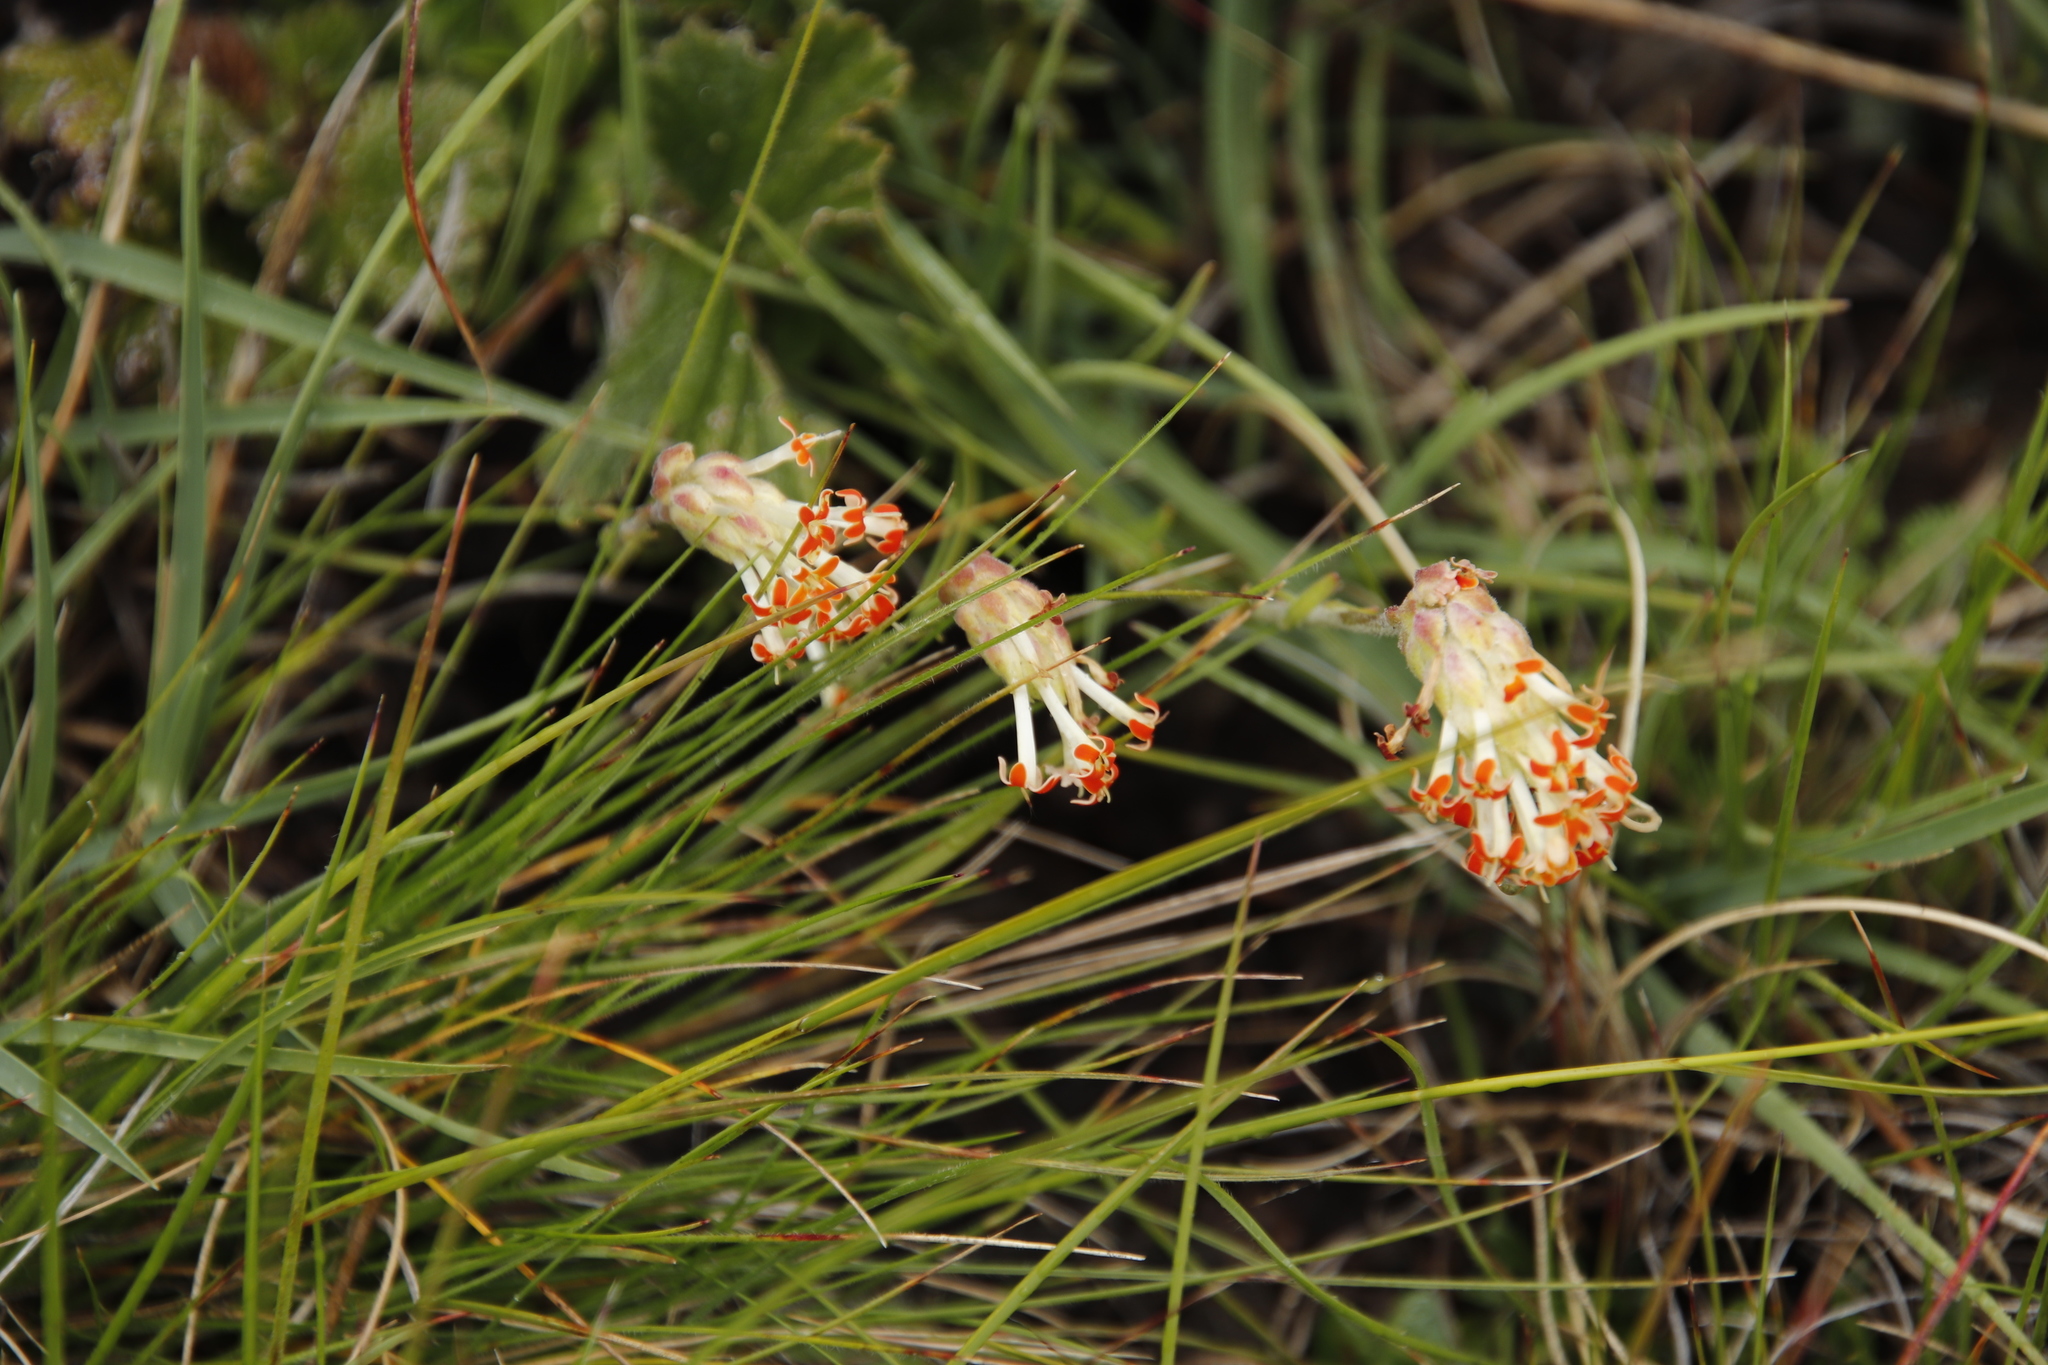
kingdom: Plantae
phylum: Tracheophyta
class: Magnoliopsida
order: Lamiales
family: Scrophulariaceae
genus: Glumicalyx
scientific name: Glumicalyx nutans
